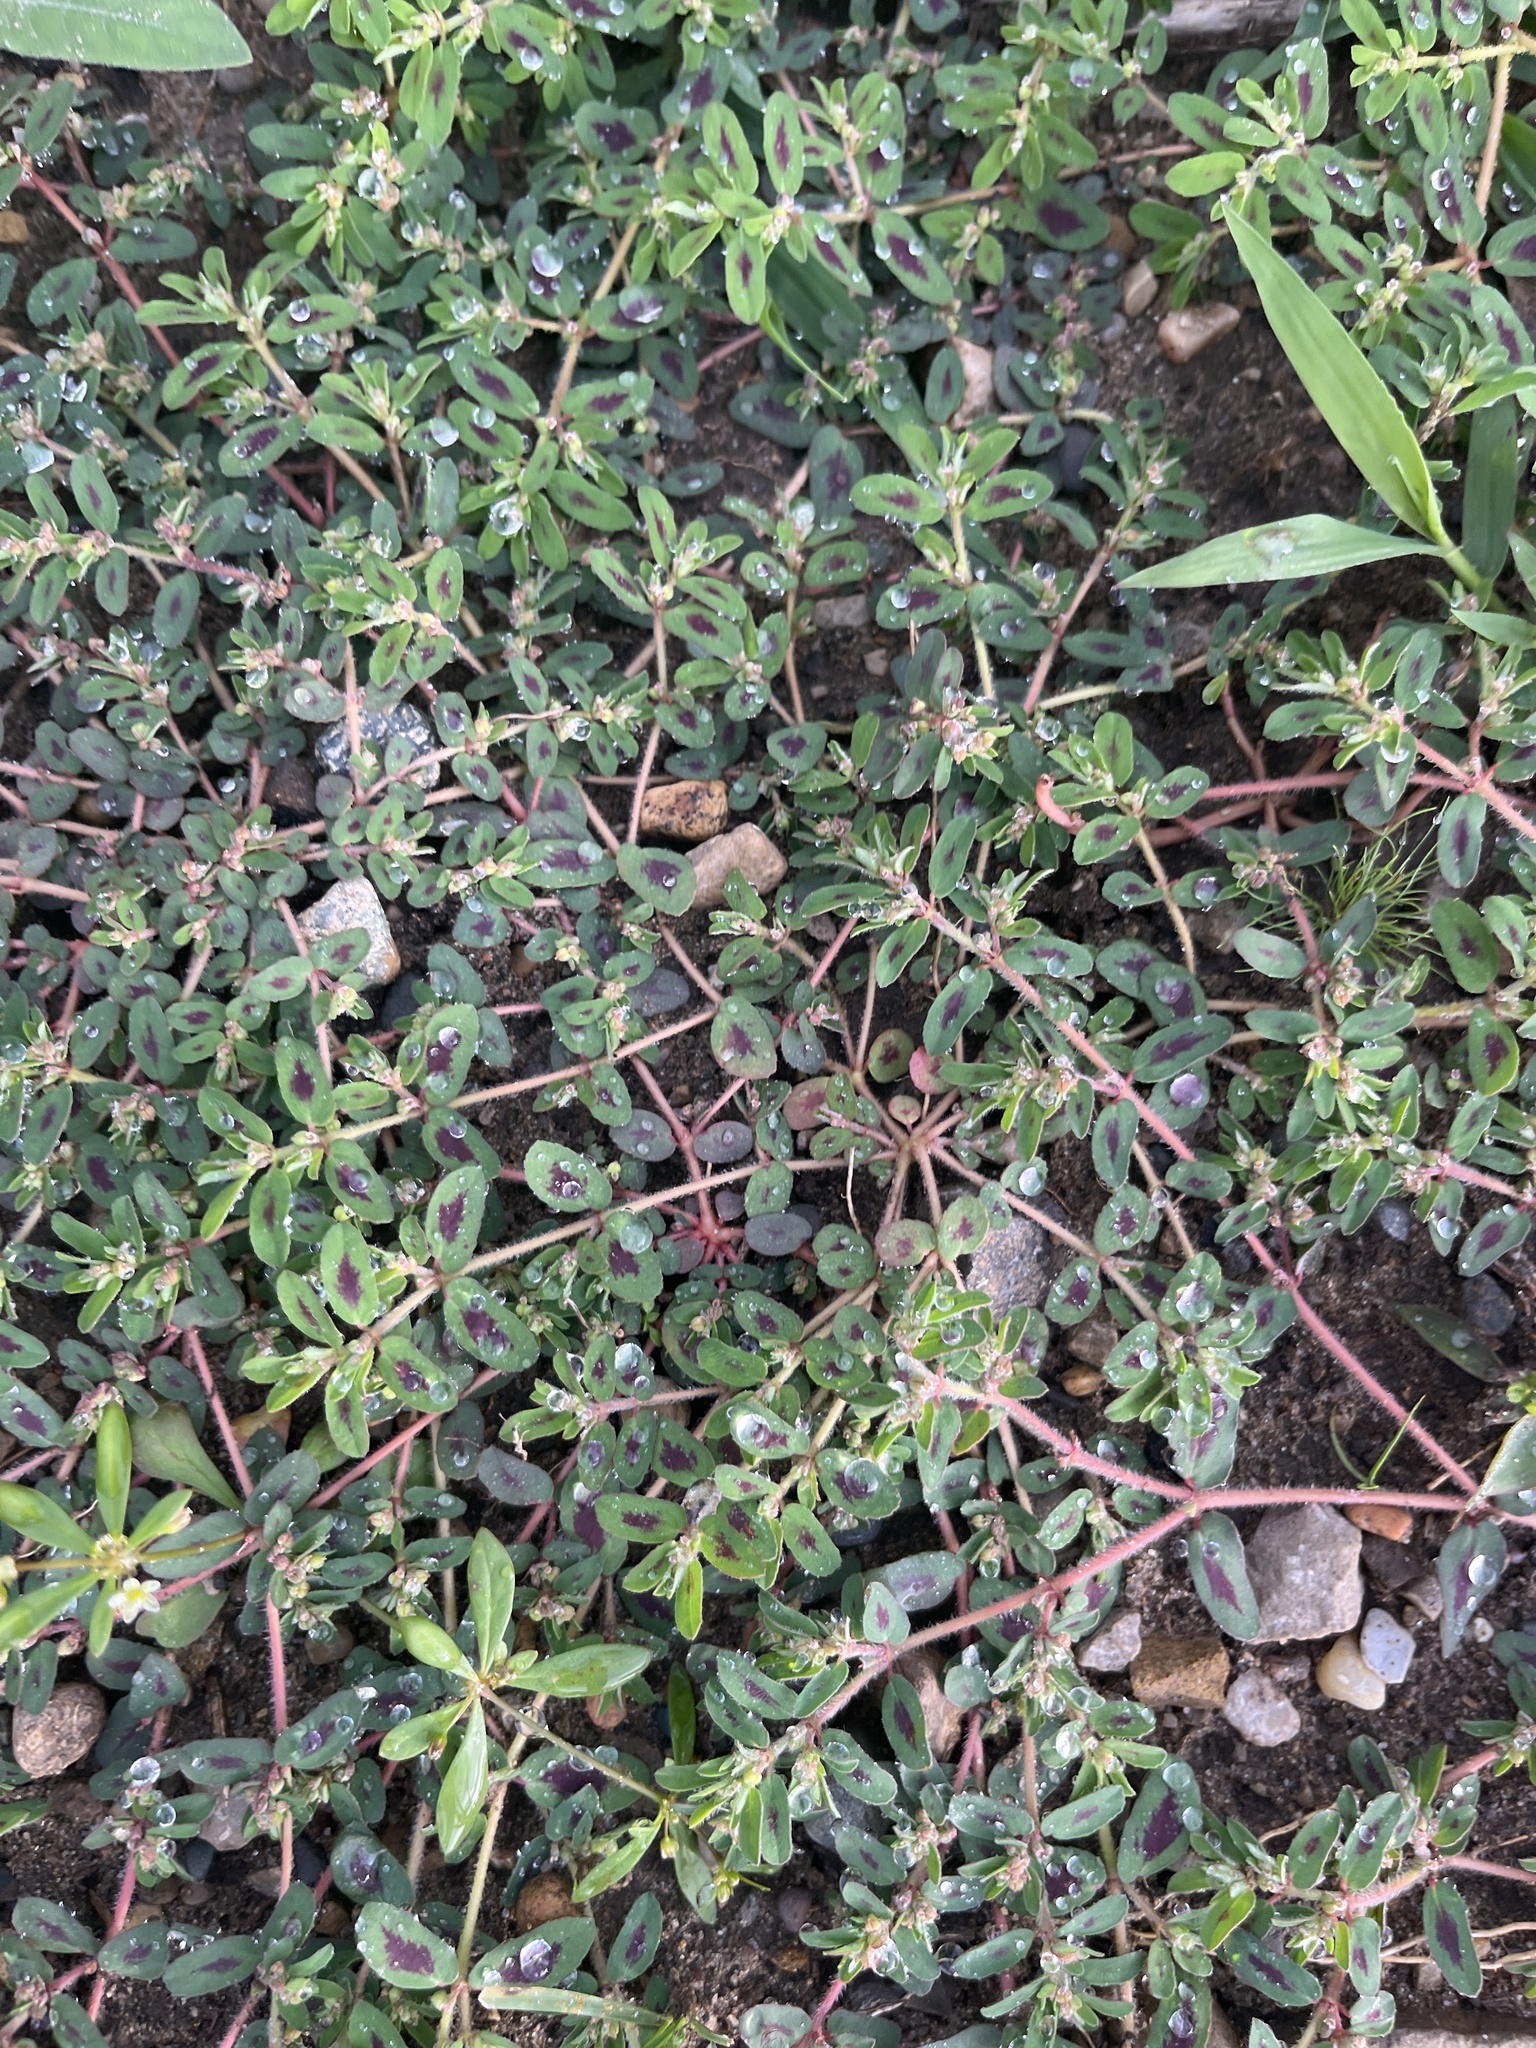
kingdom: Plantae
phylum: Tracheophyta
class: Magnoliopsida
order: Malpighiales
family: Euphorbiaceae
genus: Euphorbia
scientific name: Euphorbia maculata
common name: Spotted spurge
